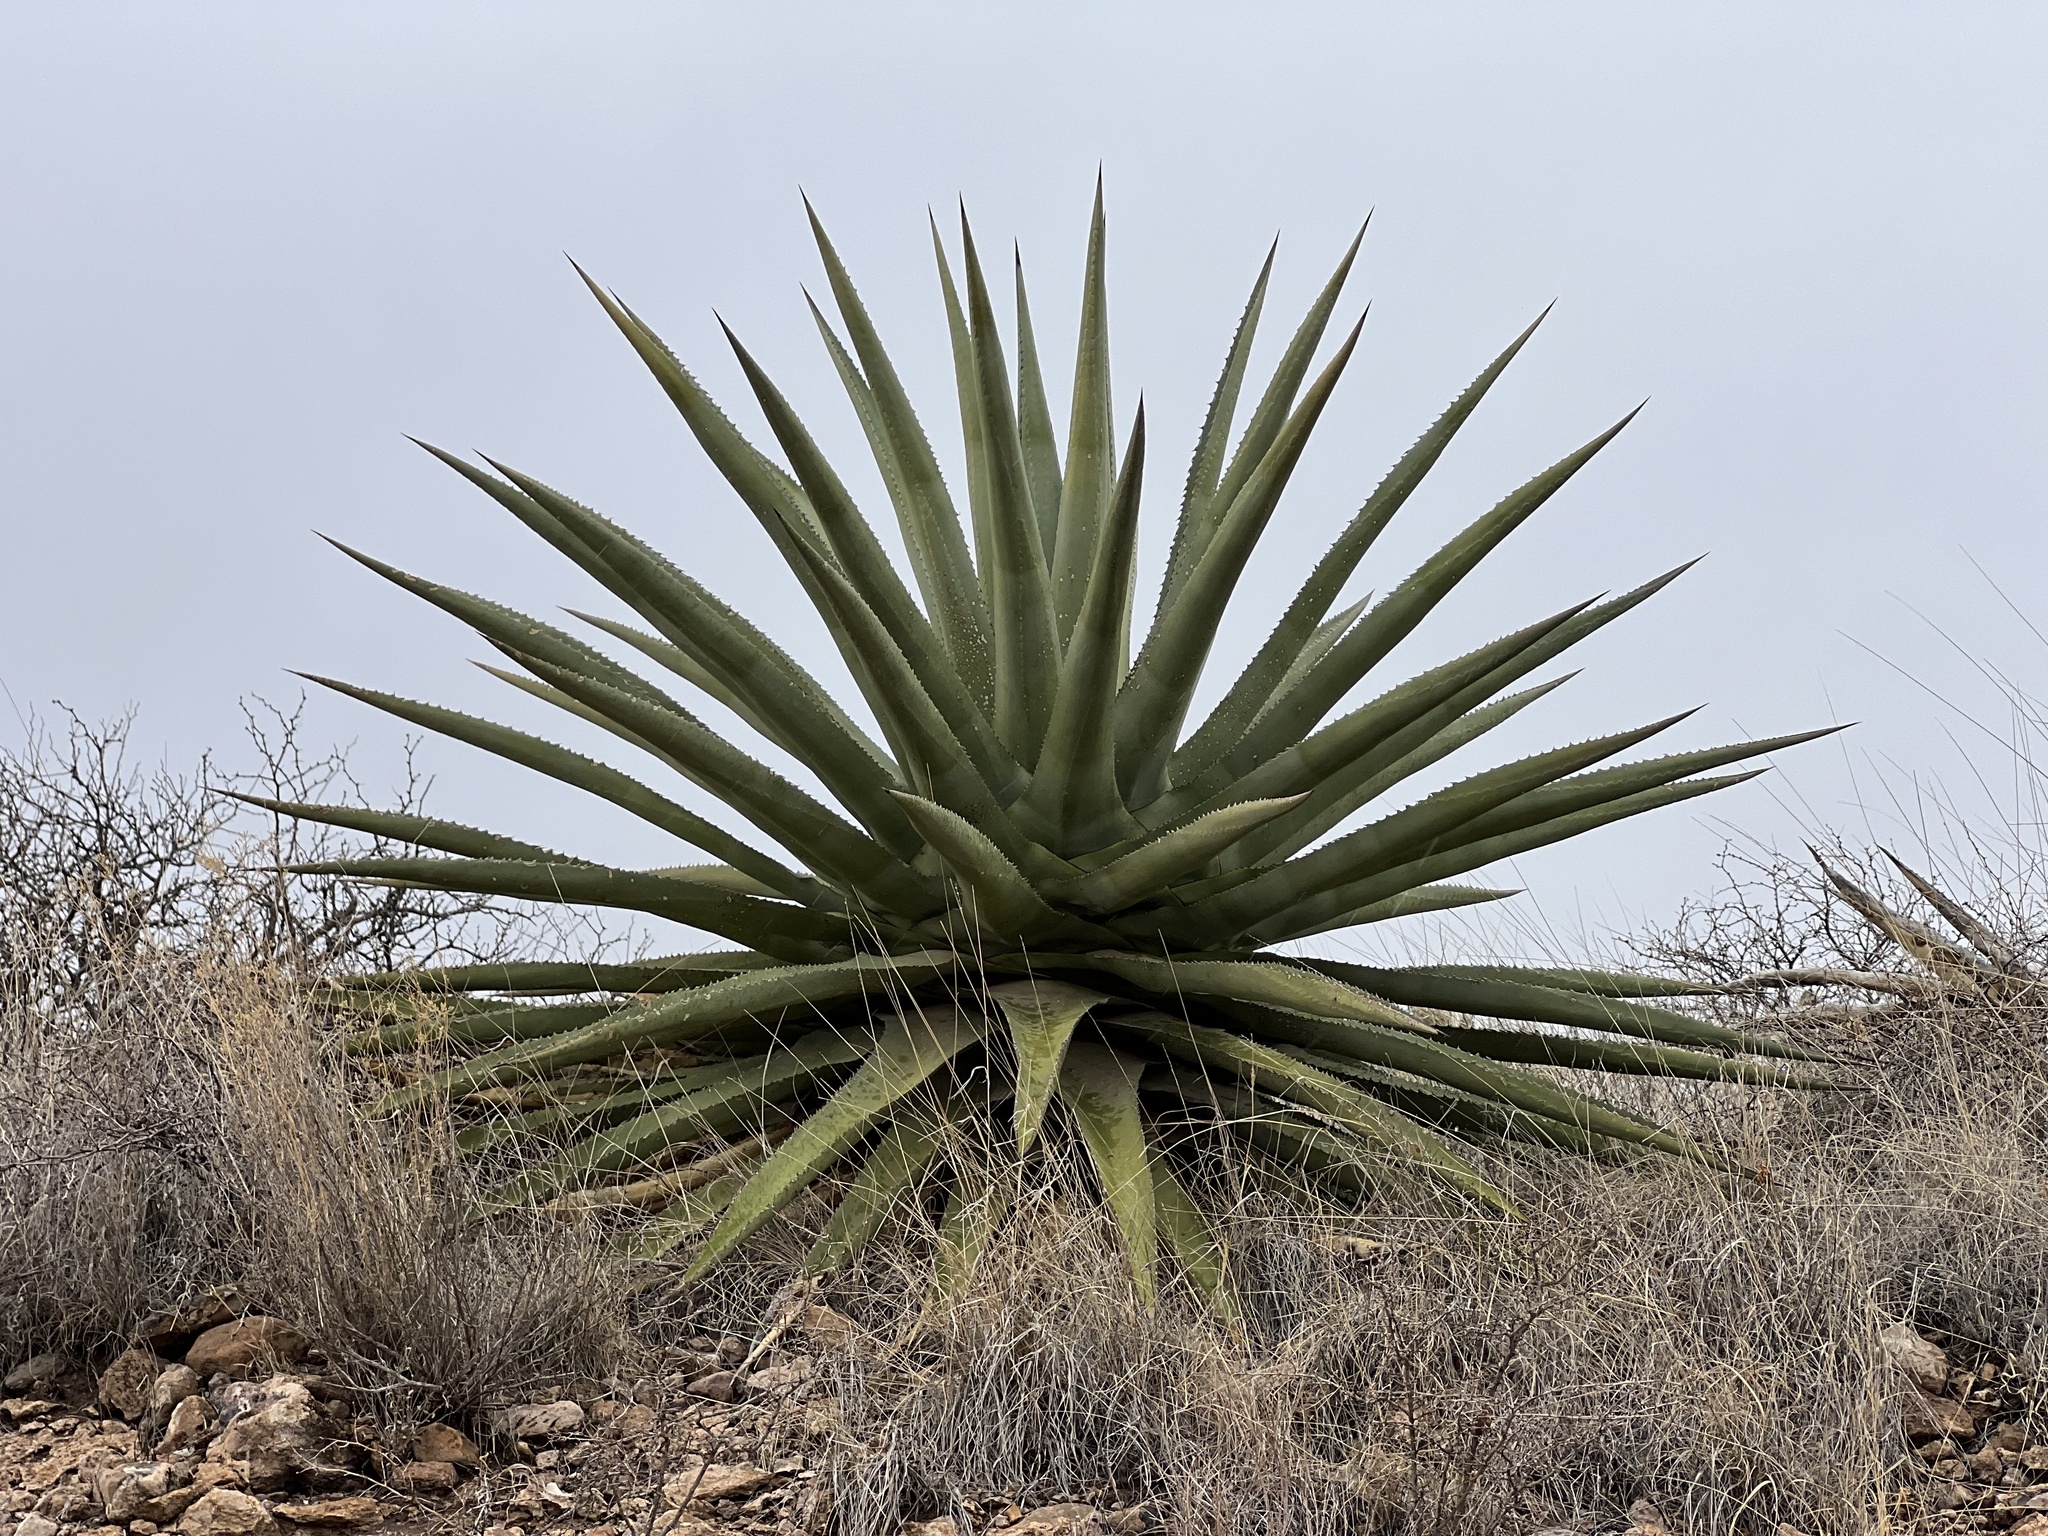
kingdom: Plantae
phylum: Tracheophyta
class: Liliopsida
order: Asparagales
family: Asparagaceae
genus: Agave
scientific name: Agave palmeri
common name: Palmer agave
